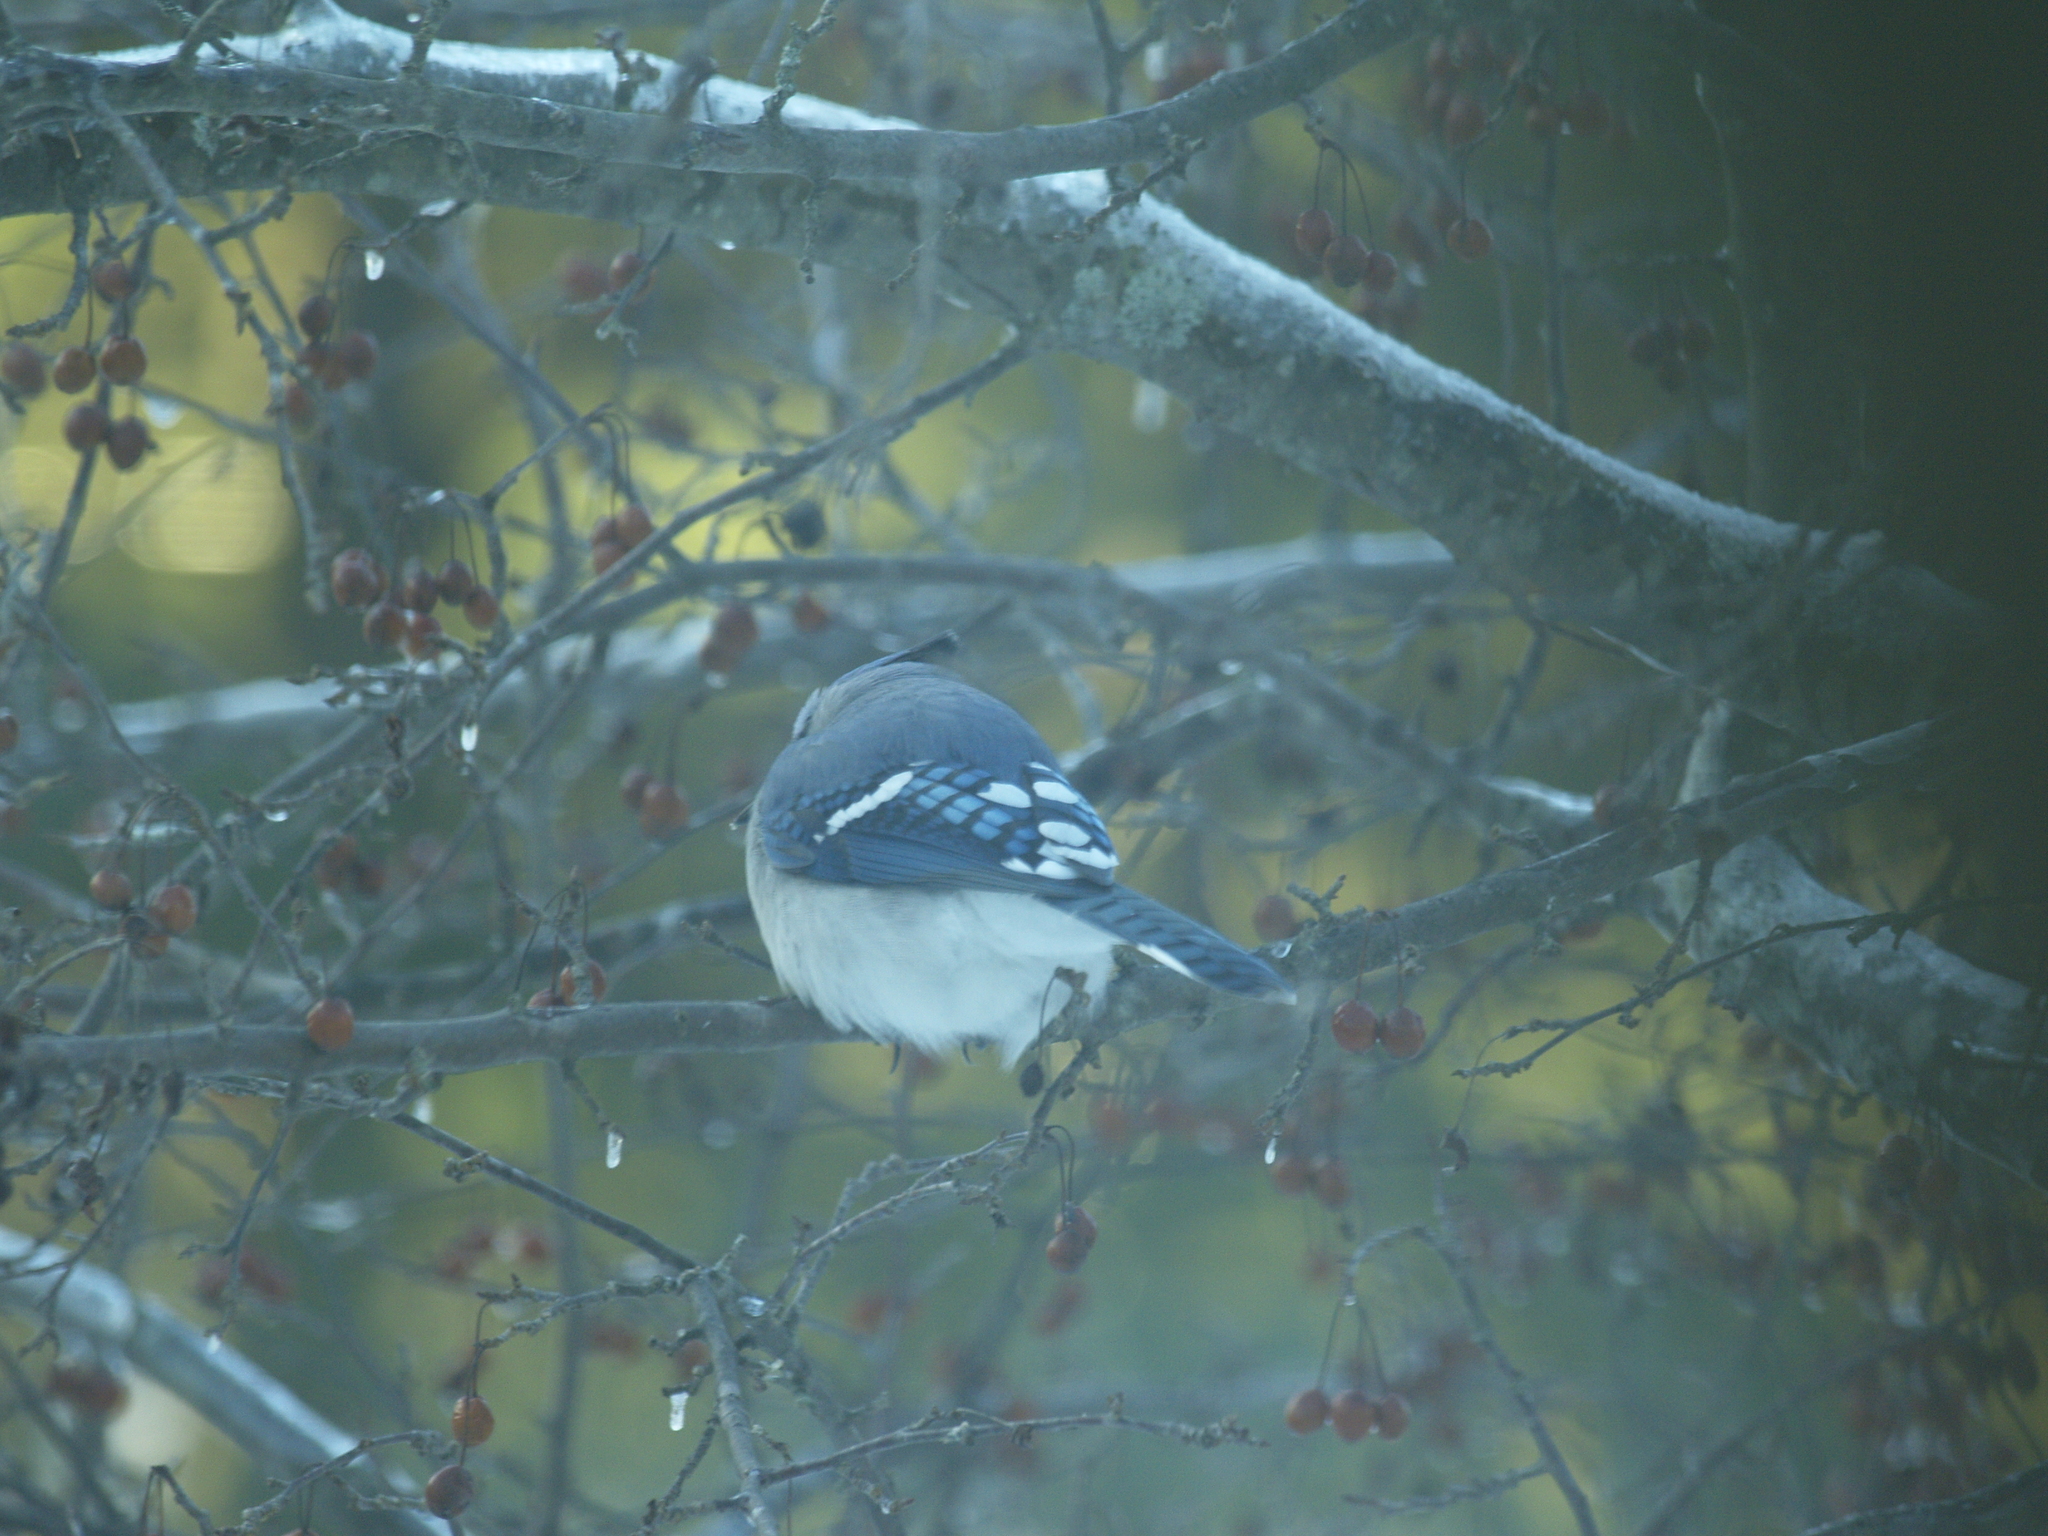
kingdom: Animalia
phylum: Chordata
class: Aves
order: Passeriformes
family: Corvidae
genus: Cyanocitta
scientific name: Cyanocitta cristata
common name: Blue jay
